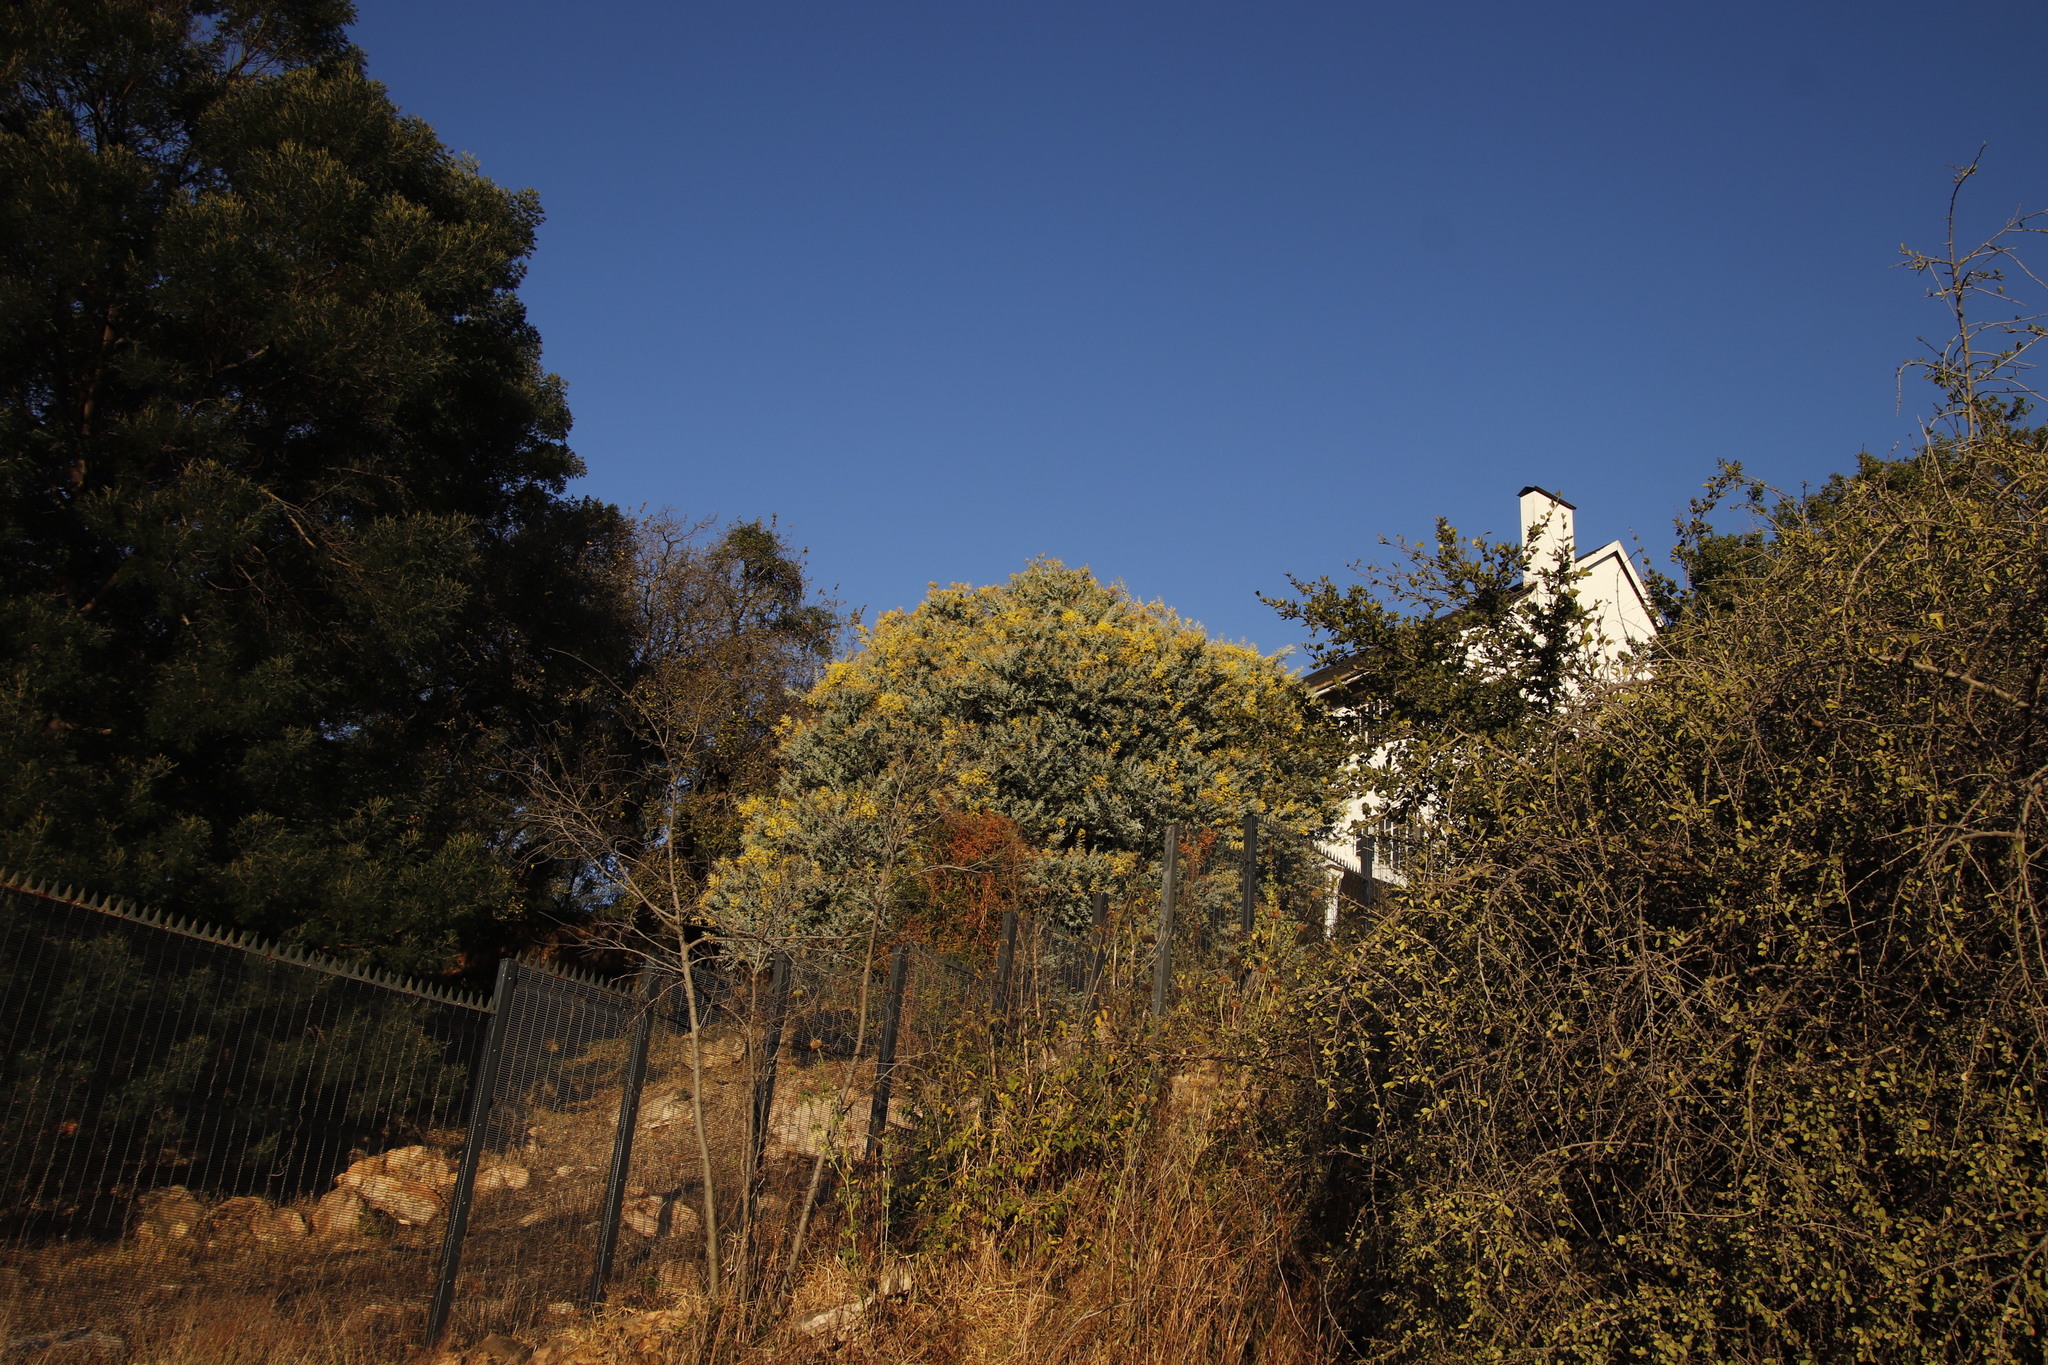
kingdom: Plantae
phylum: Tracheophyta
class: Magnoliopsida
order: Fabales
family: Fabaceae
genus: Acacia
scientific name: Acacia podalyriifolia
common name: Pearl wattle
